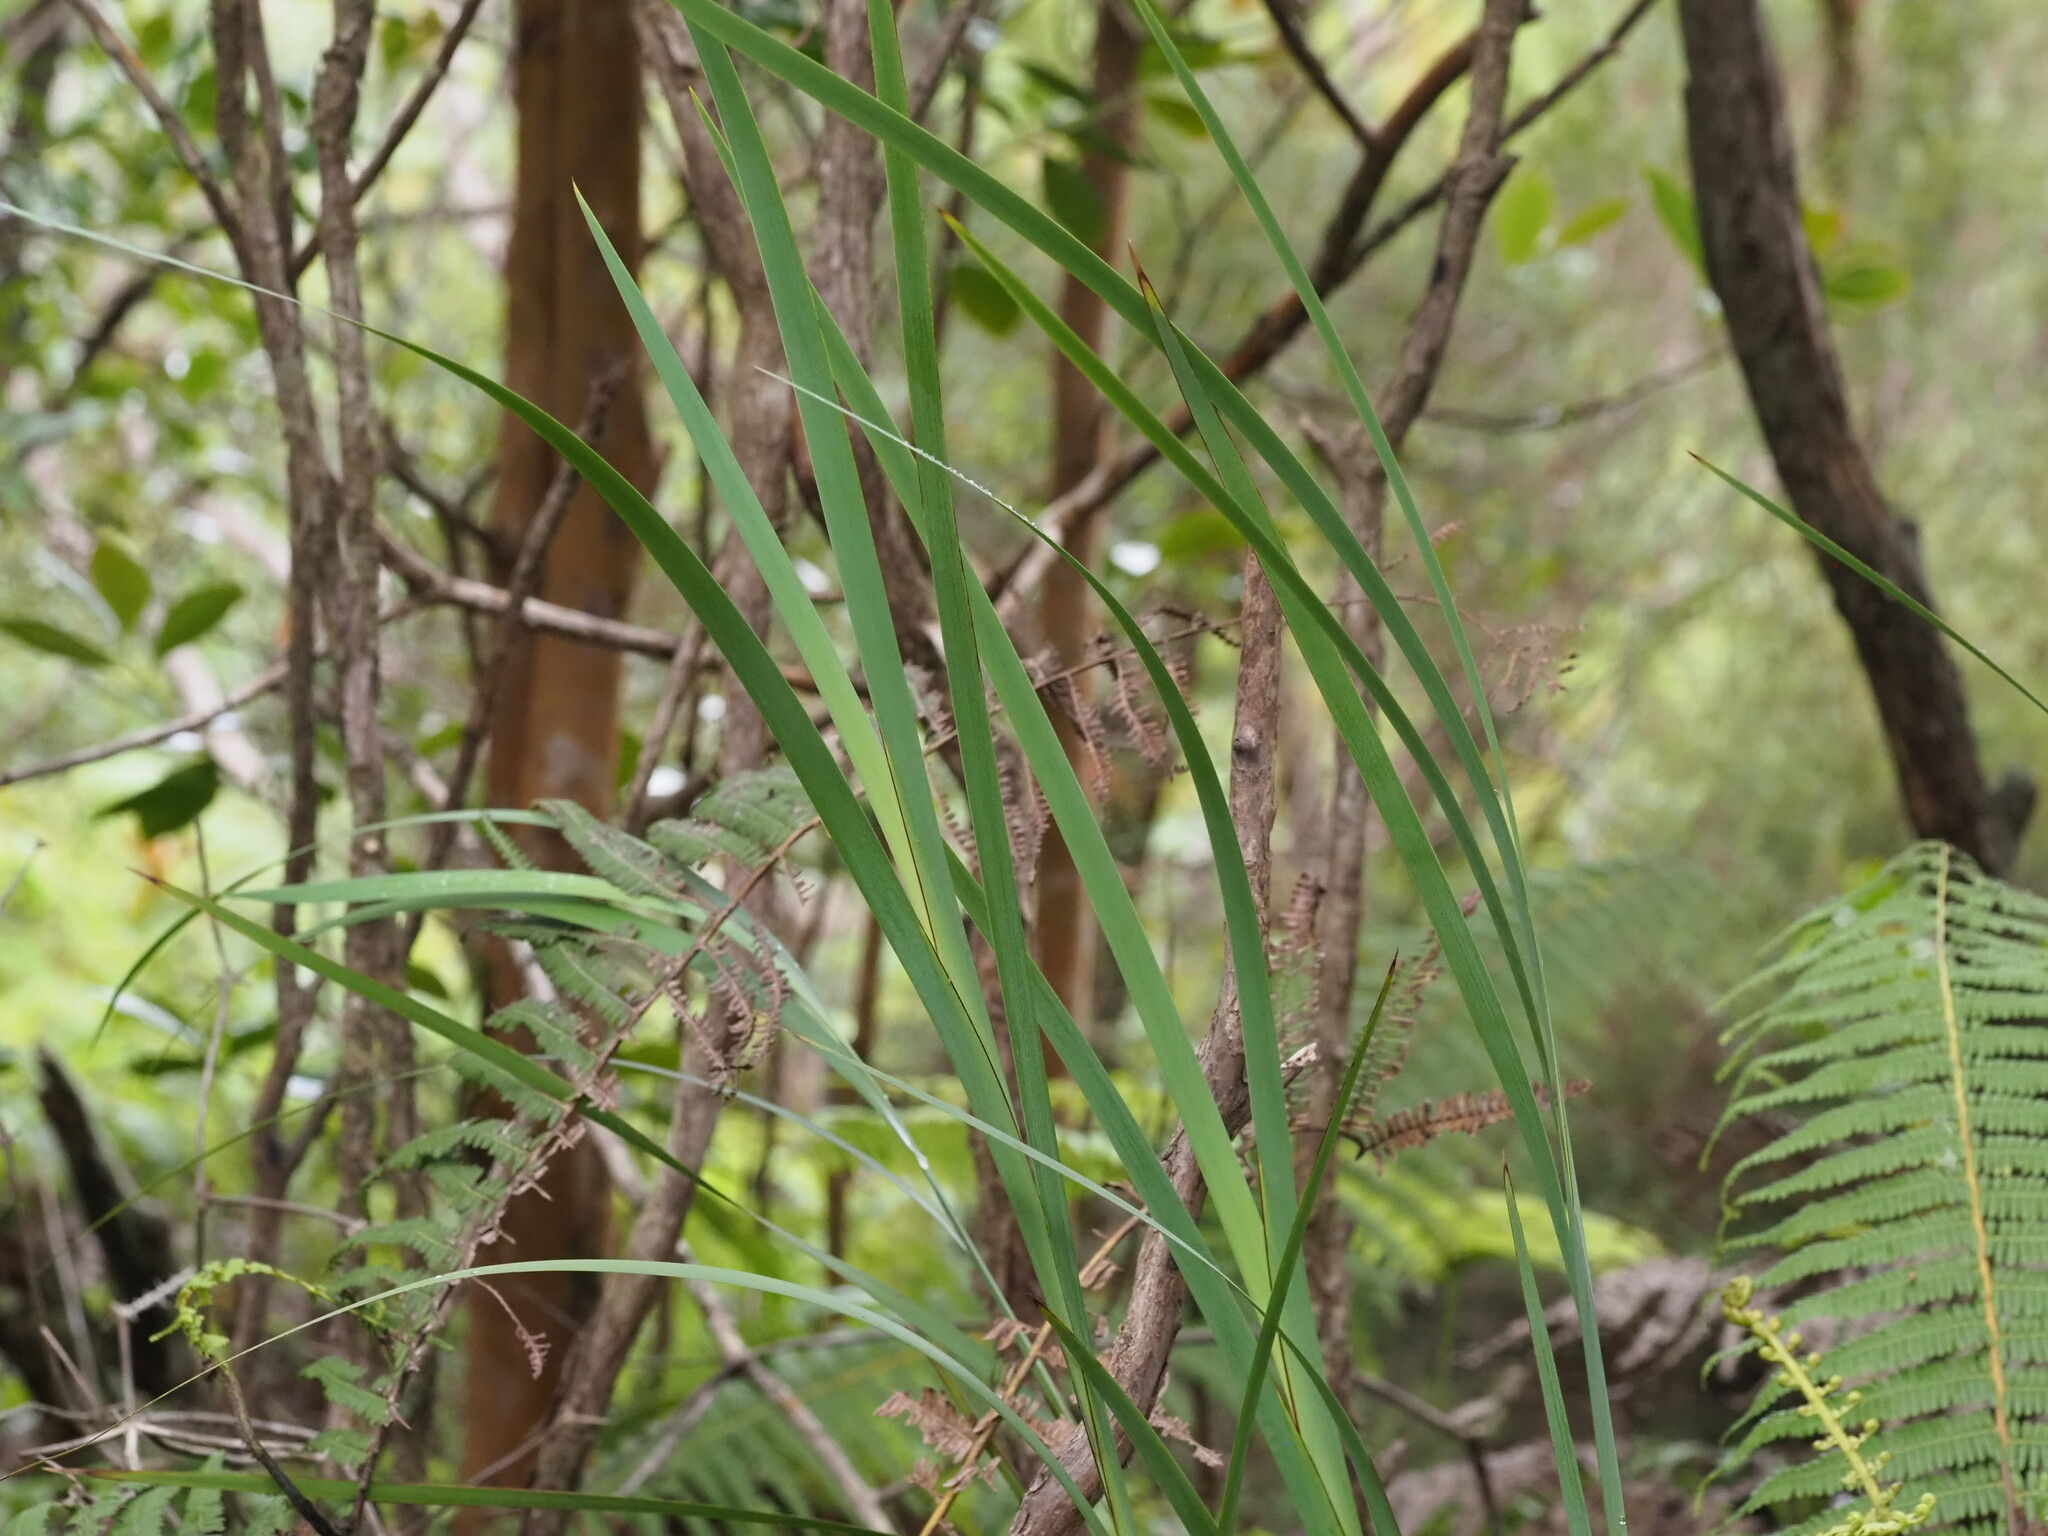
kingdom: Plantae
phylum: Tracheophyta
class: Liliopsida
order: Poales
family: Cyperaceae
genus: Machaerina
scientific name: Machaerina angustifolia
